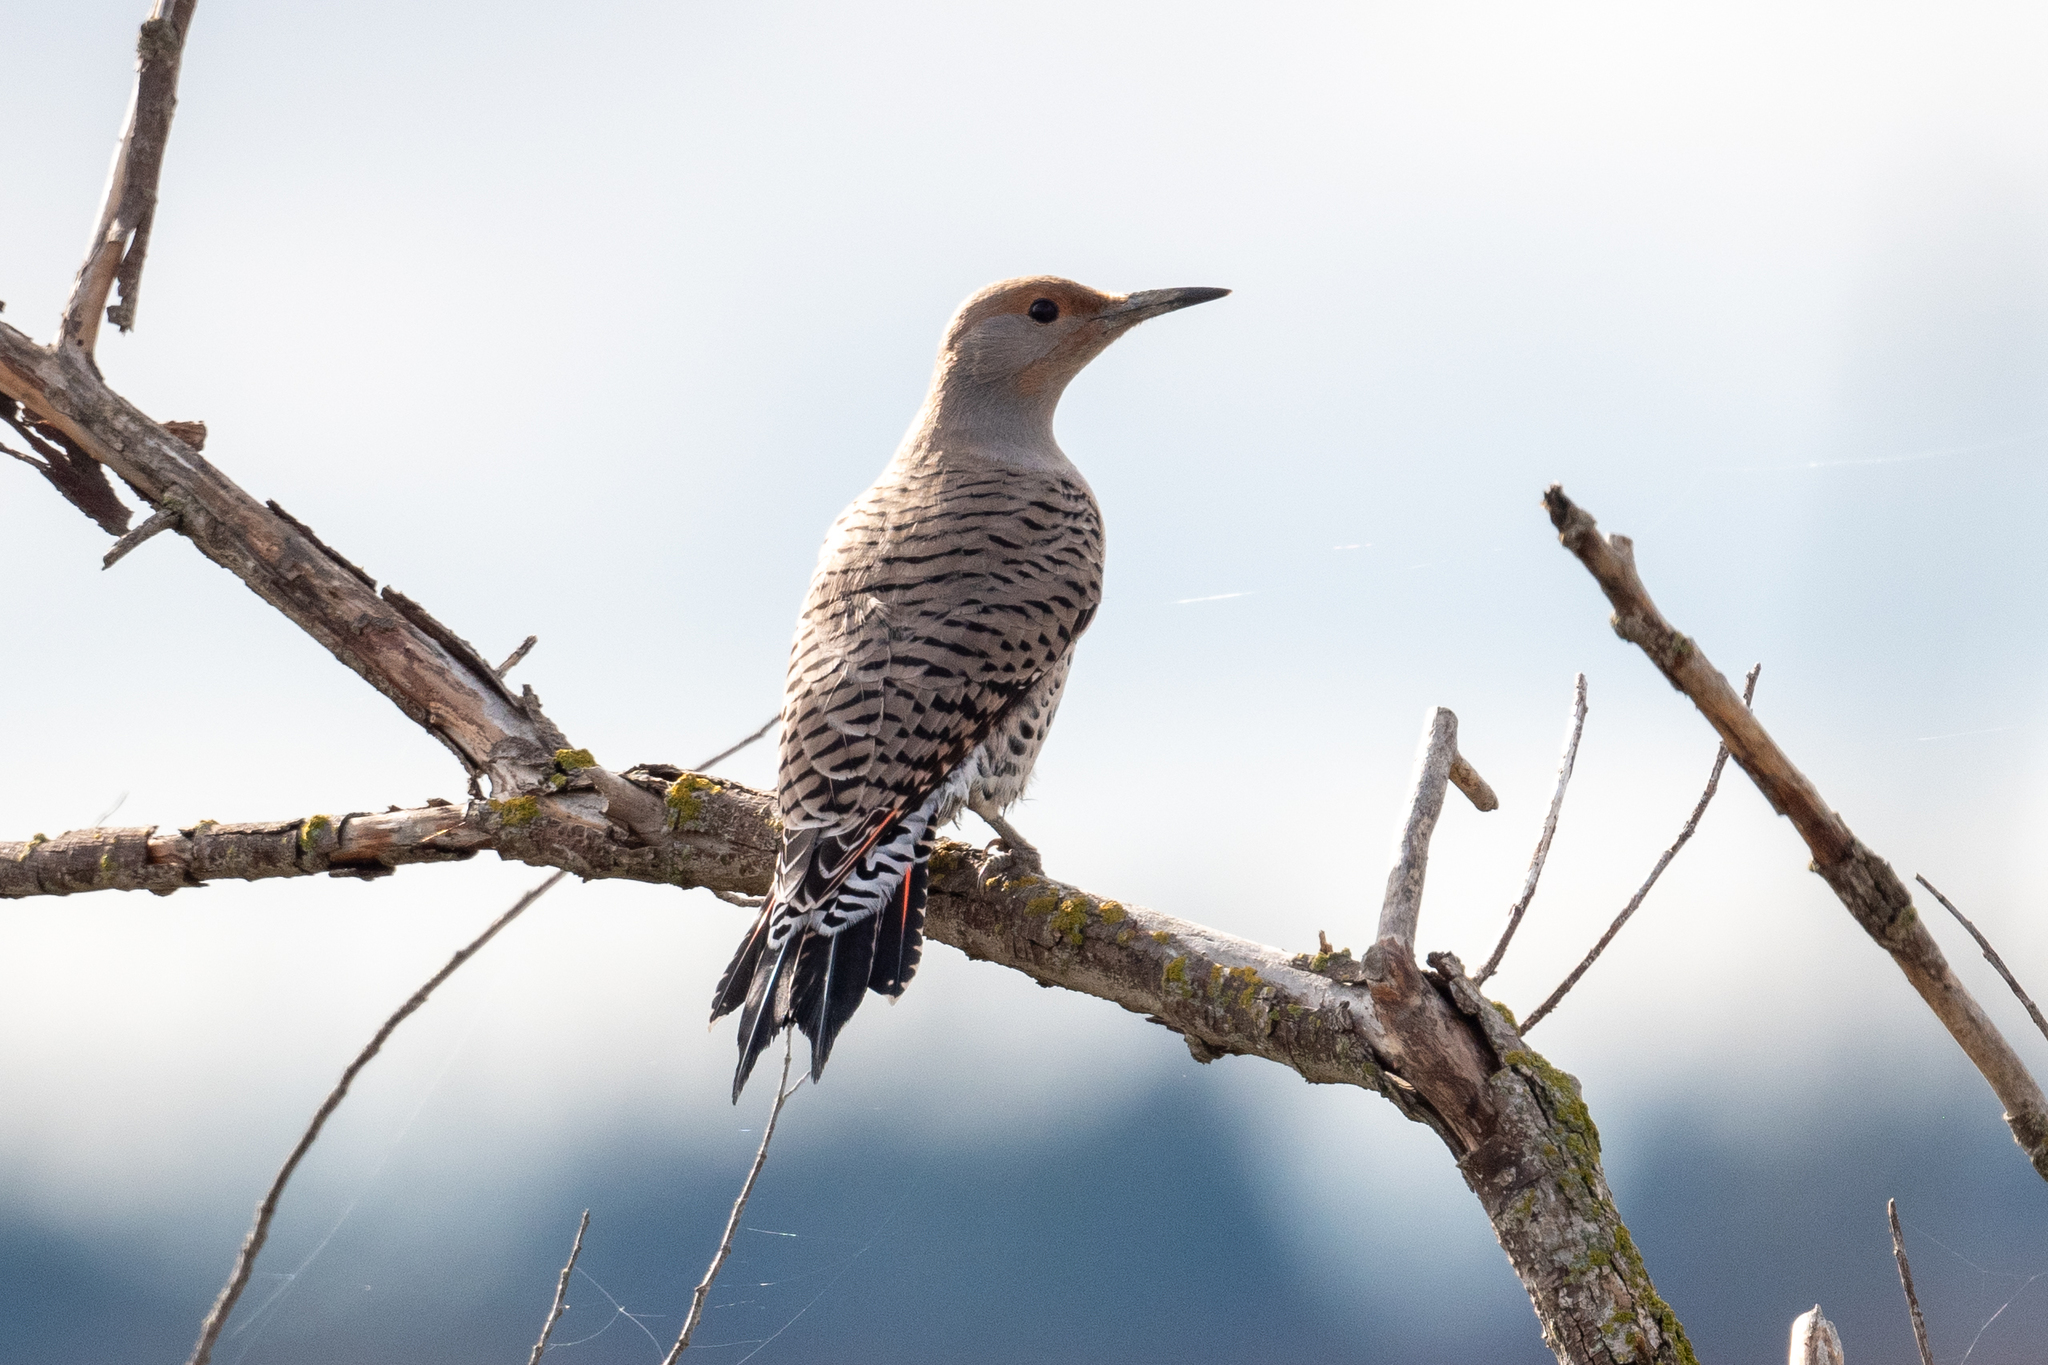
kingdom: Animalia
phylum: Chordata
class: Aves
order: Piciformes
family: Picidae
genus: Colaptes
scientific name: Colaptes auratus
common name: Northern flicker
